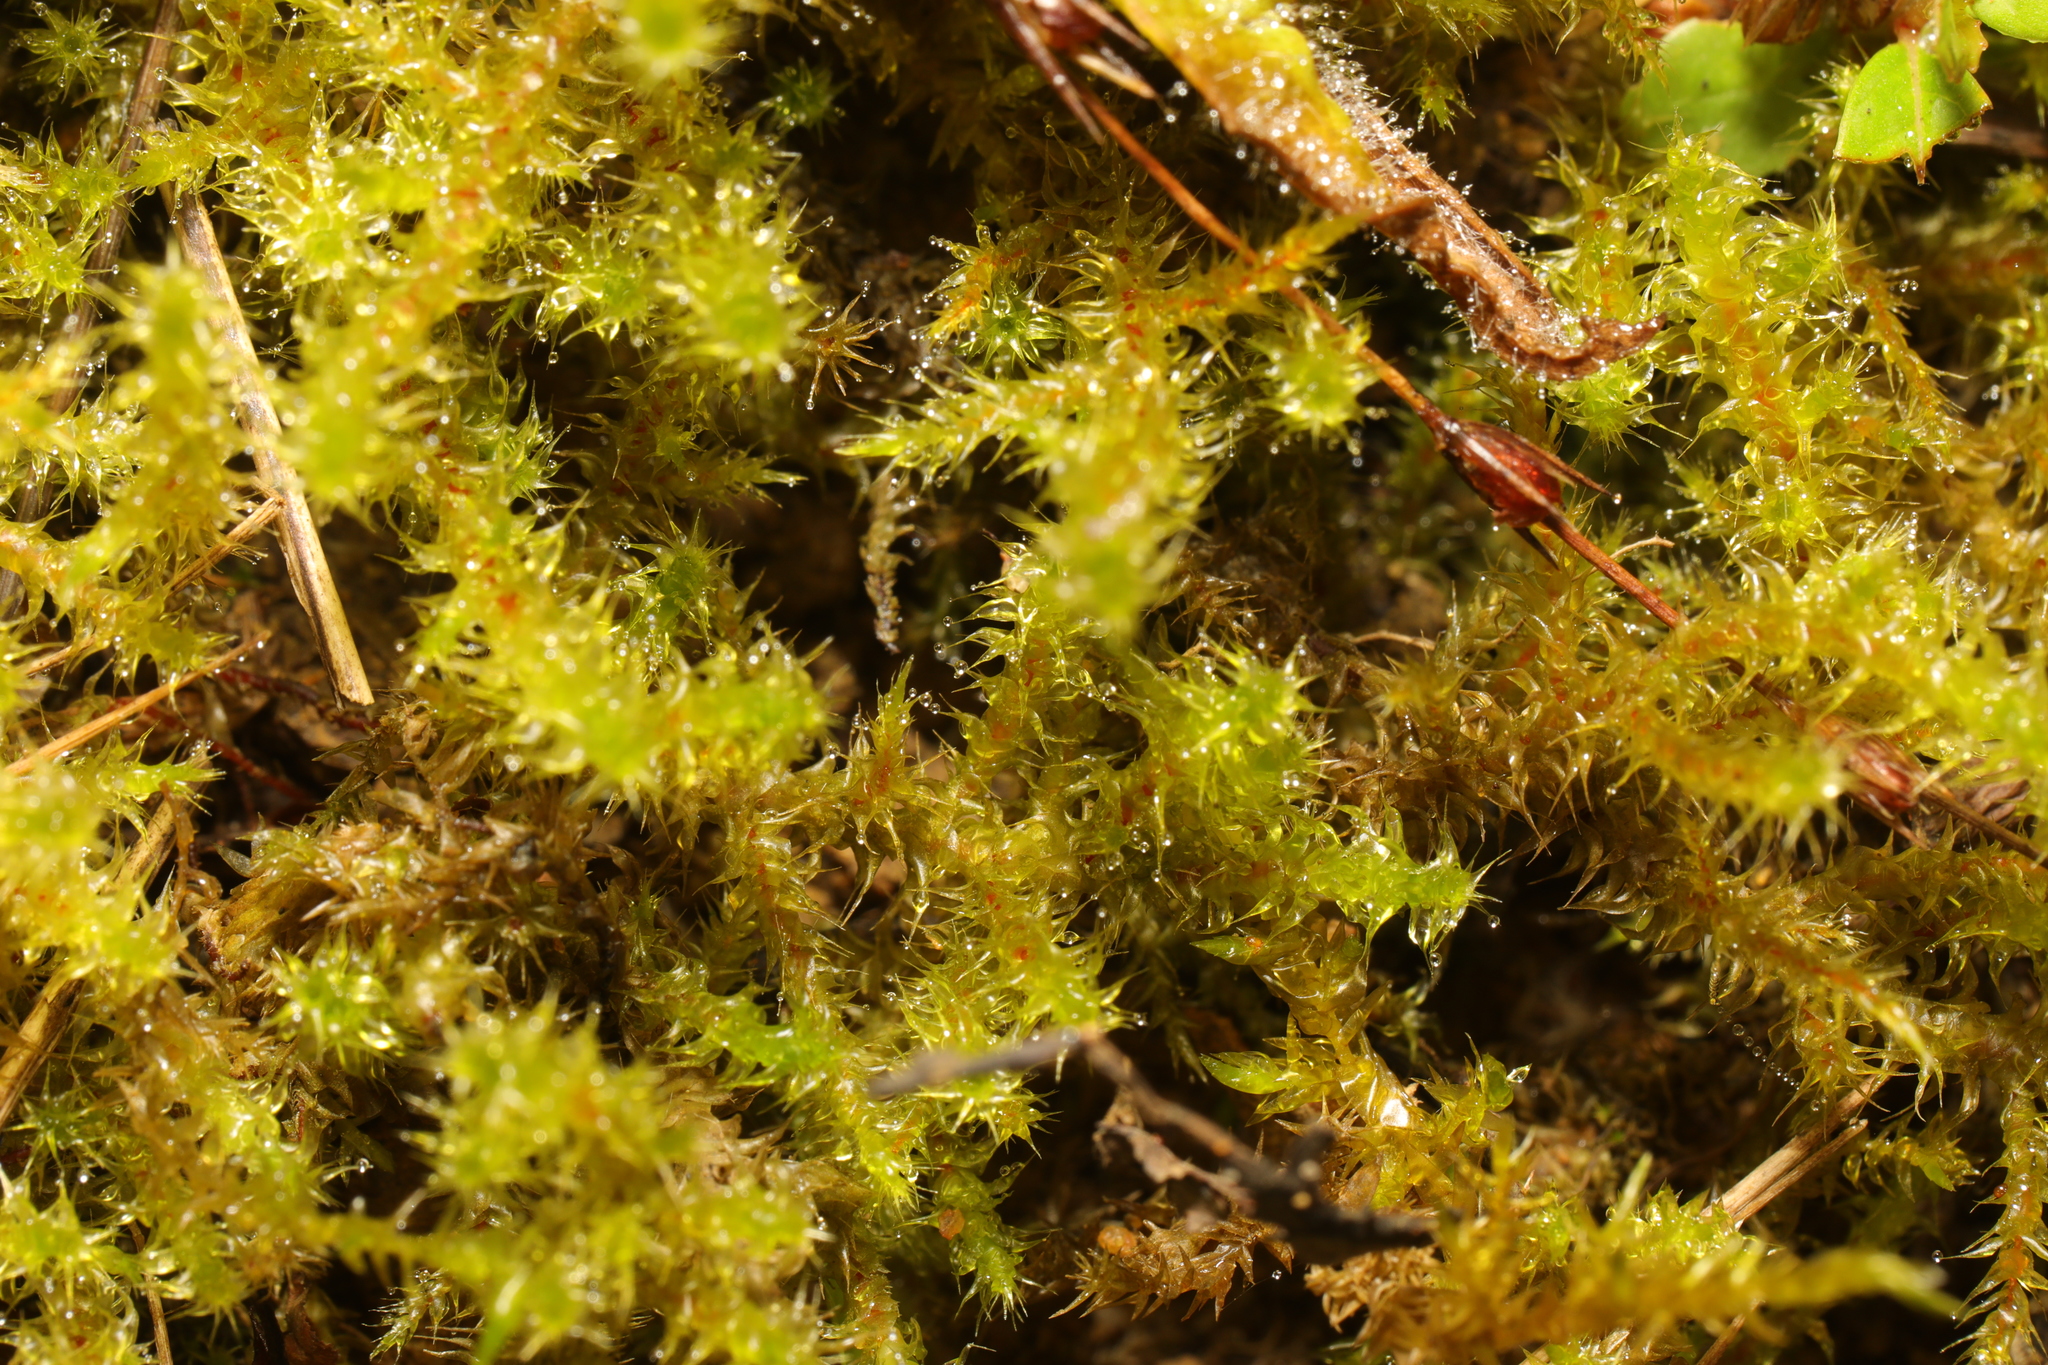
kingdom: Plantae
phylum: Bryophyta
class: Bryopsida
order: Hypnales
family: Hylocomiaceae
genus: Rhytidiadelphus
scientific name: Rhytidiadelphus squarrosus
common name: Springy turf-moss
